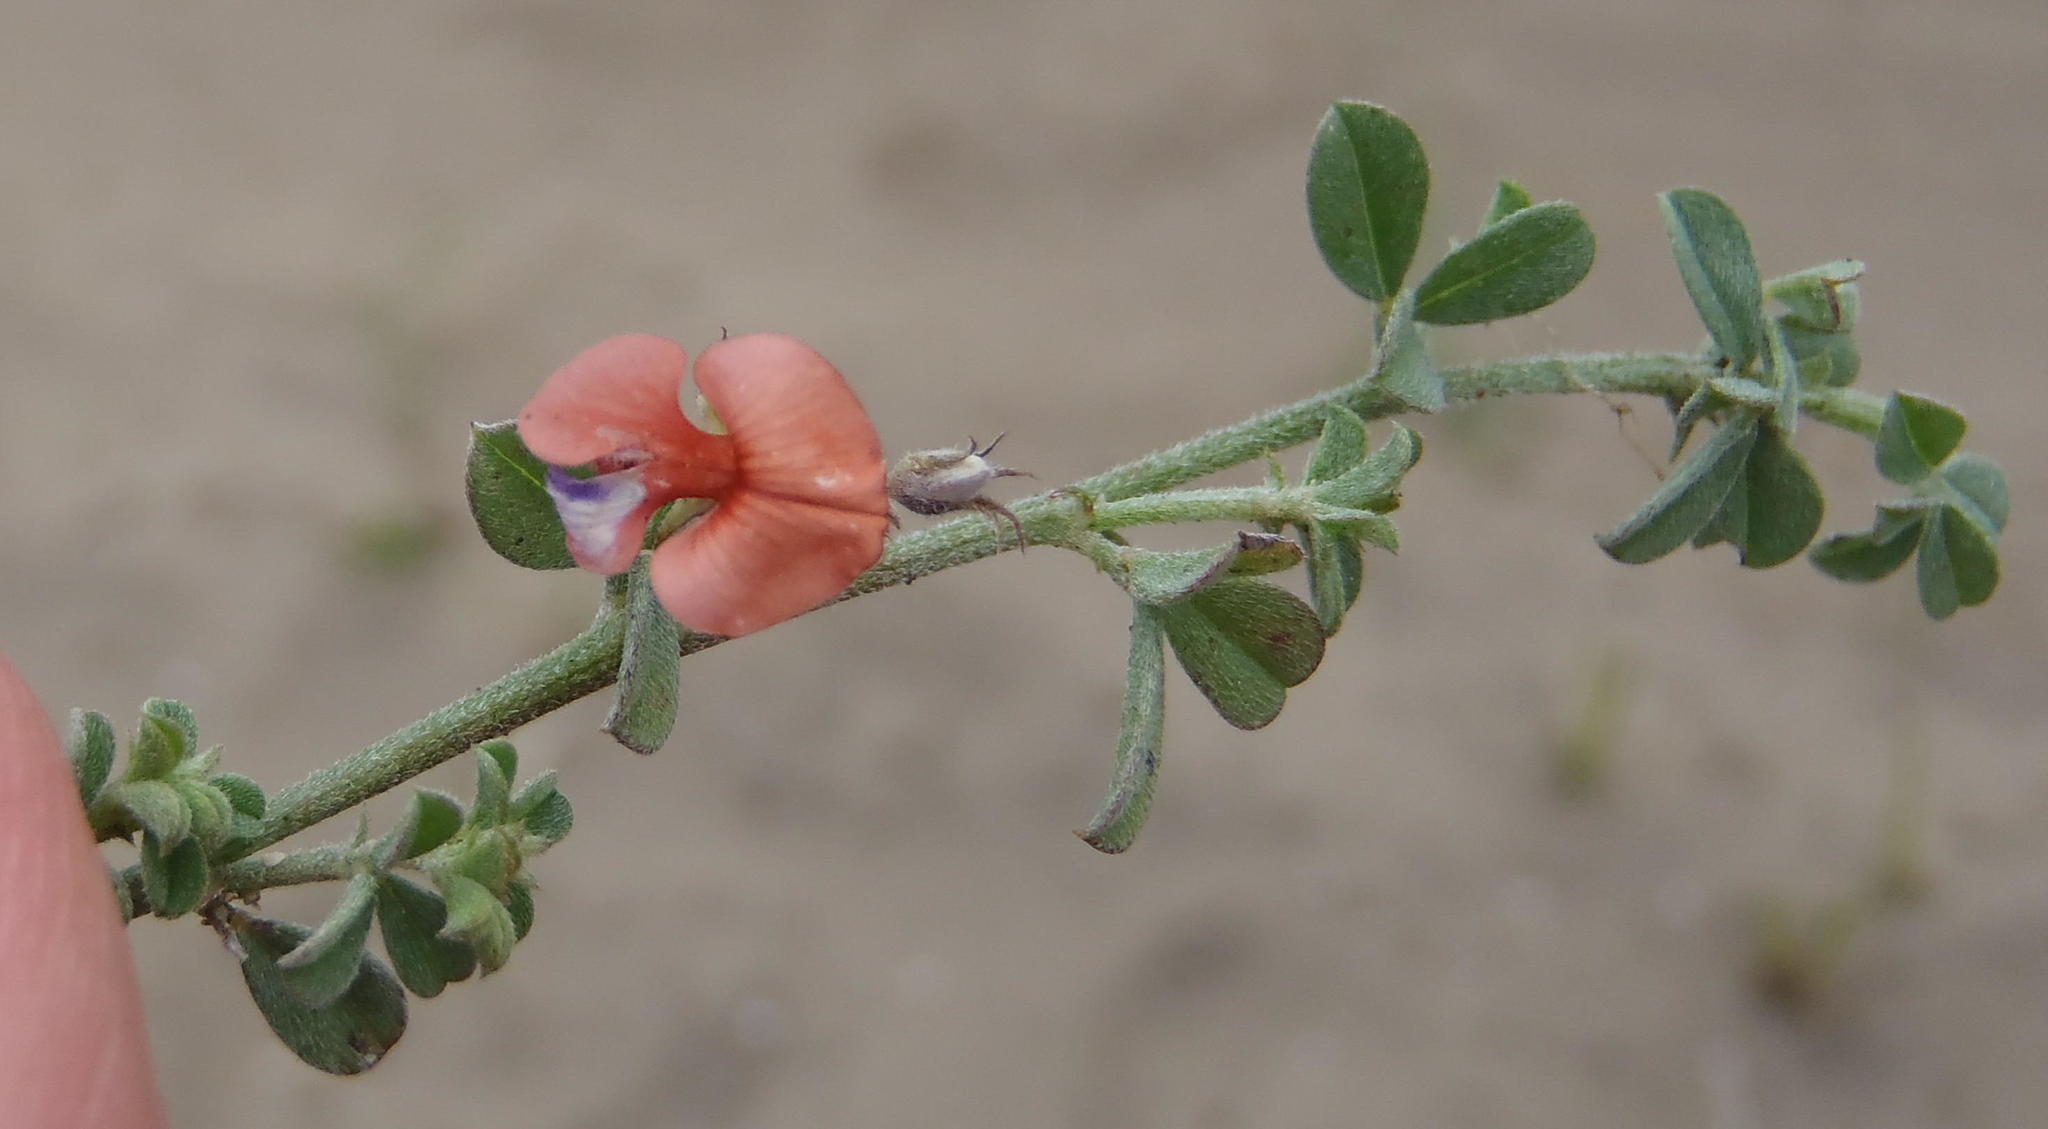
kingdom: Plantae
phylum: Tracheophyta
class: Magnoliopsida
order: Fabales
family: Fabaceae
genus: Indigofera
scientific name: Indigofera priorii
